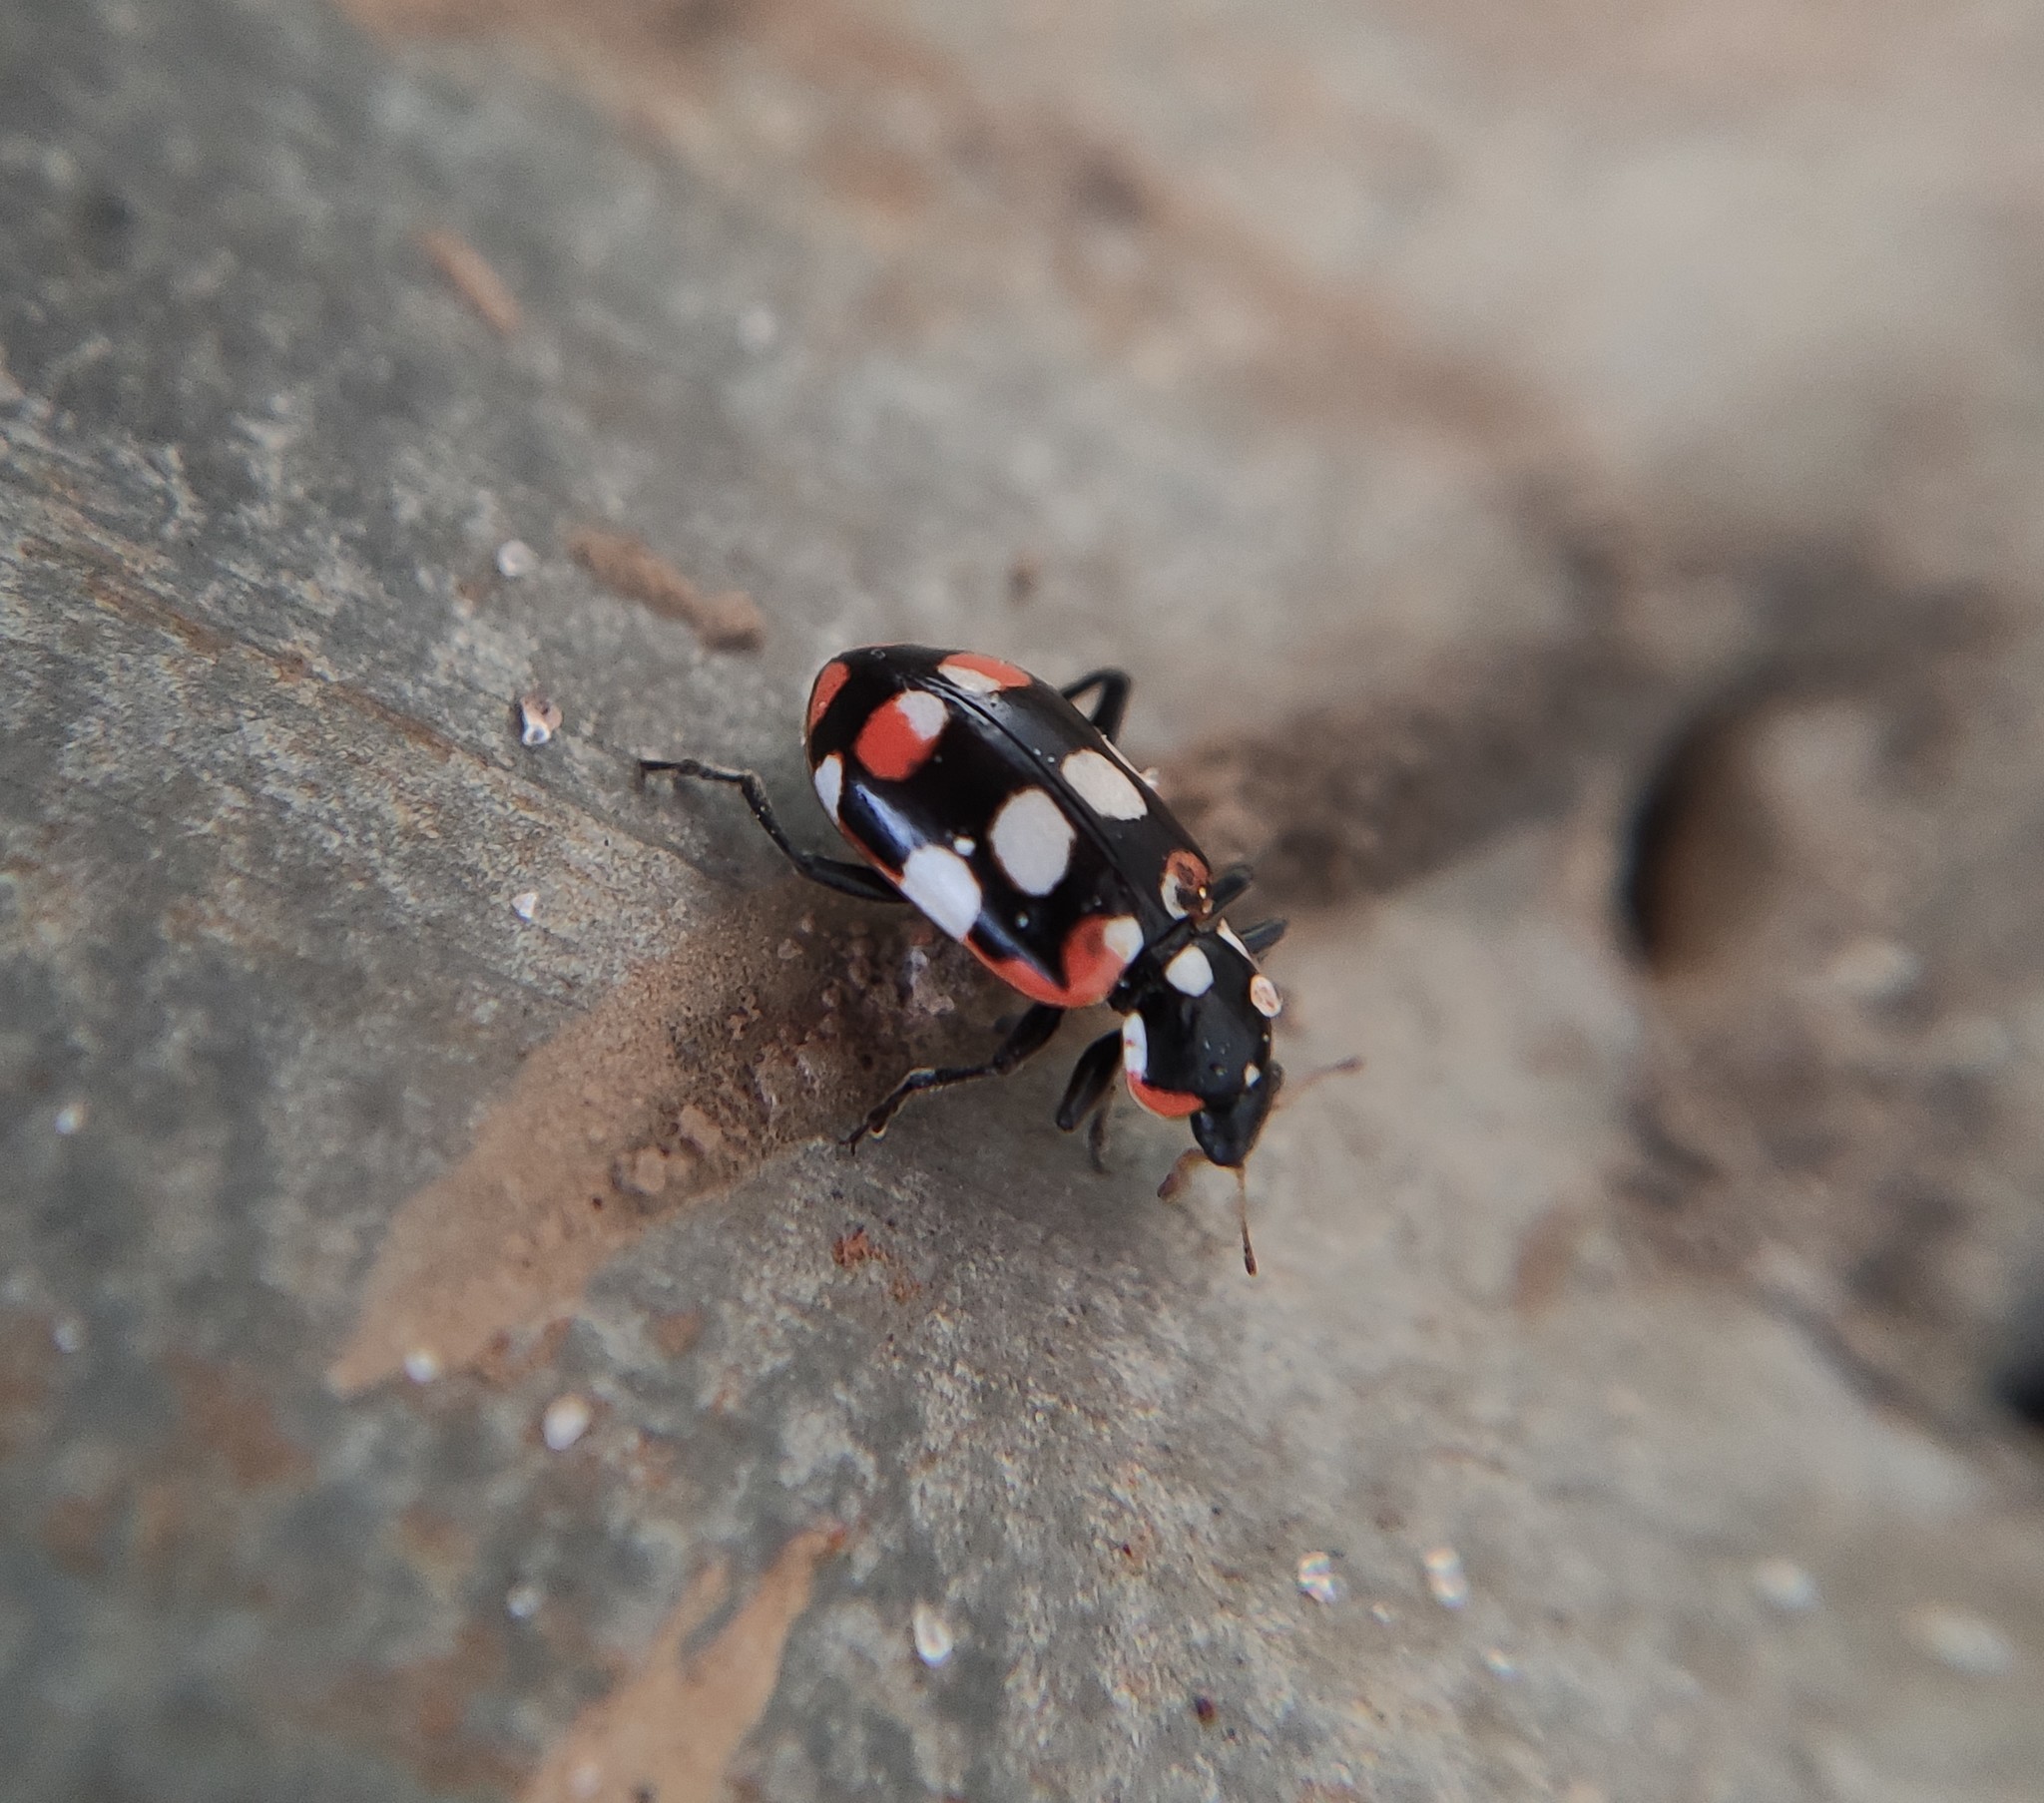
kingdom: Animalia
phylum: Arthropoda
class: Insecta
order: Coleoptera
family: Coccinellidae
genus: Eriopis
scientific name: Eriopis connexa
